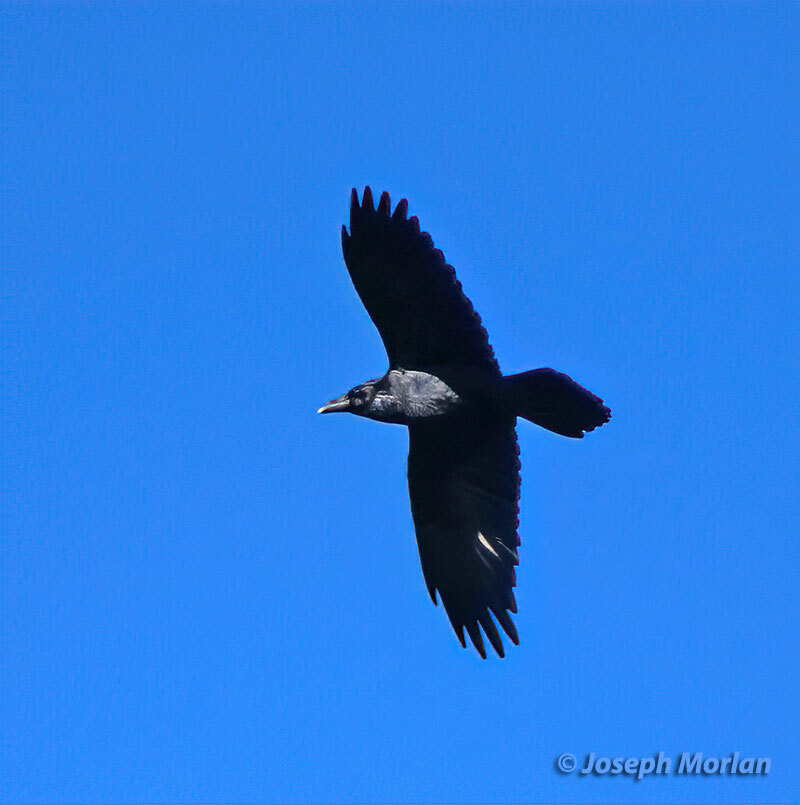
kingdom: Animalia
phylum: Chordata
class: Aves
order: Passeriformes
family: Corvidae
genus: Corvus
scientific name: Corvus corax
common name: Common raven
